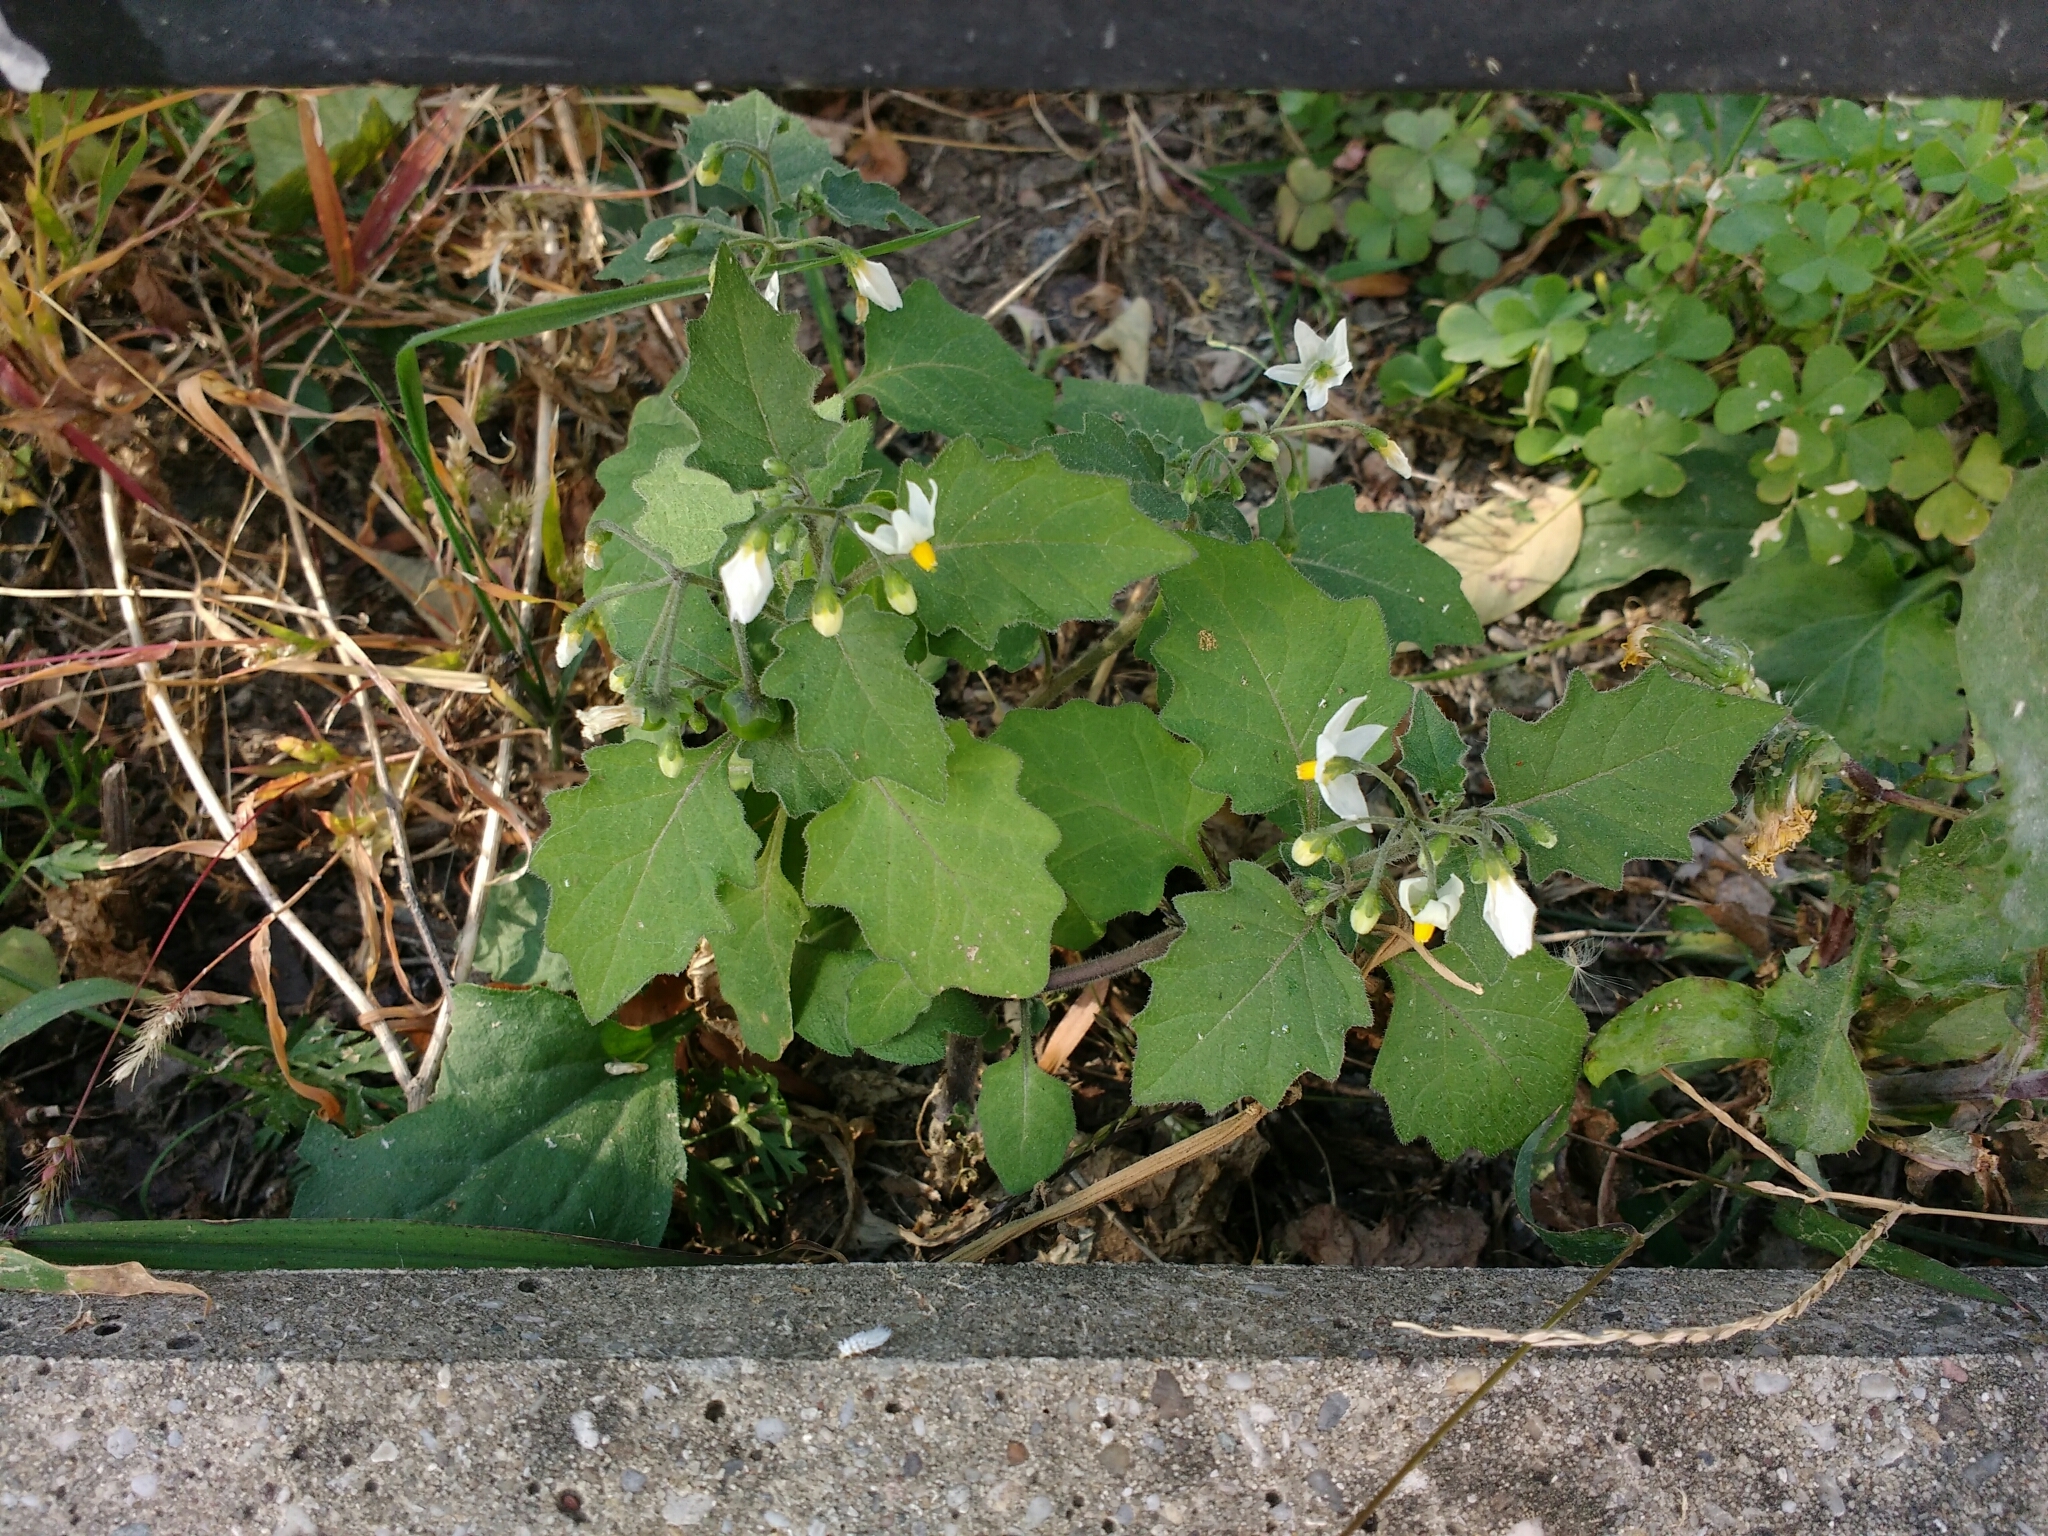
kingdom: Plantae
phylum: Tracheophyta
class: Magnoliopsida
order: Solanales
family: Solanaceae
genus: Solanum
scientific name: Solanum decipiens
